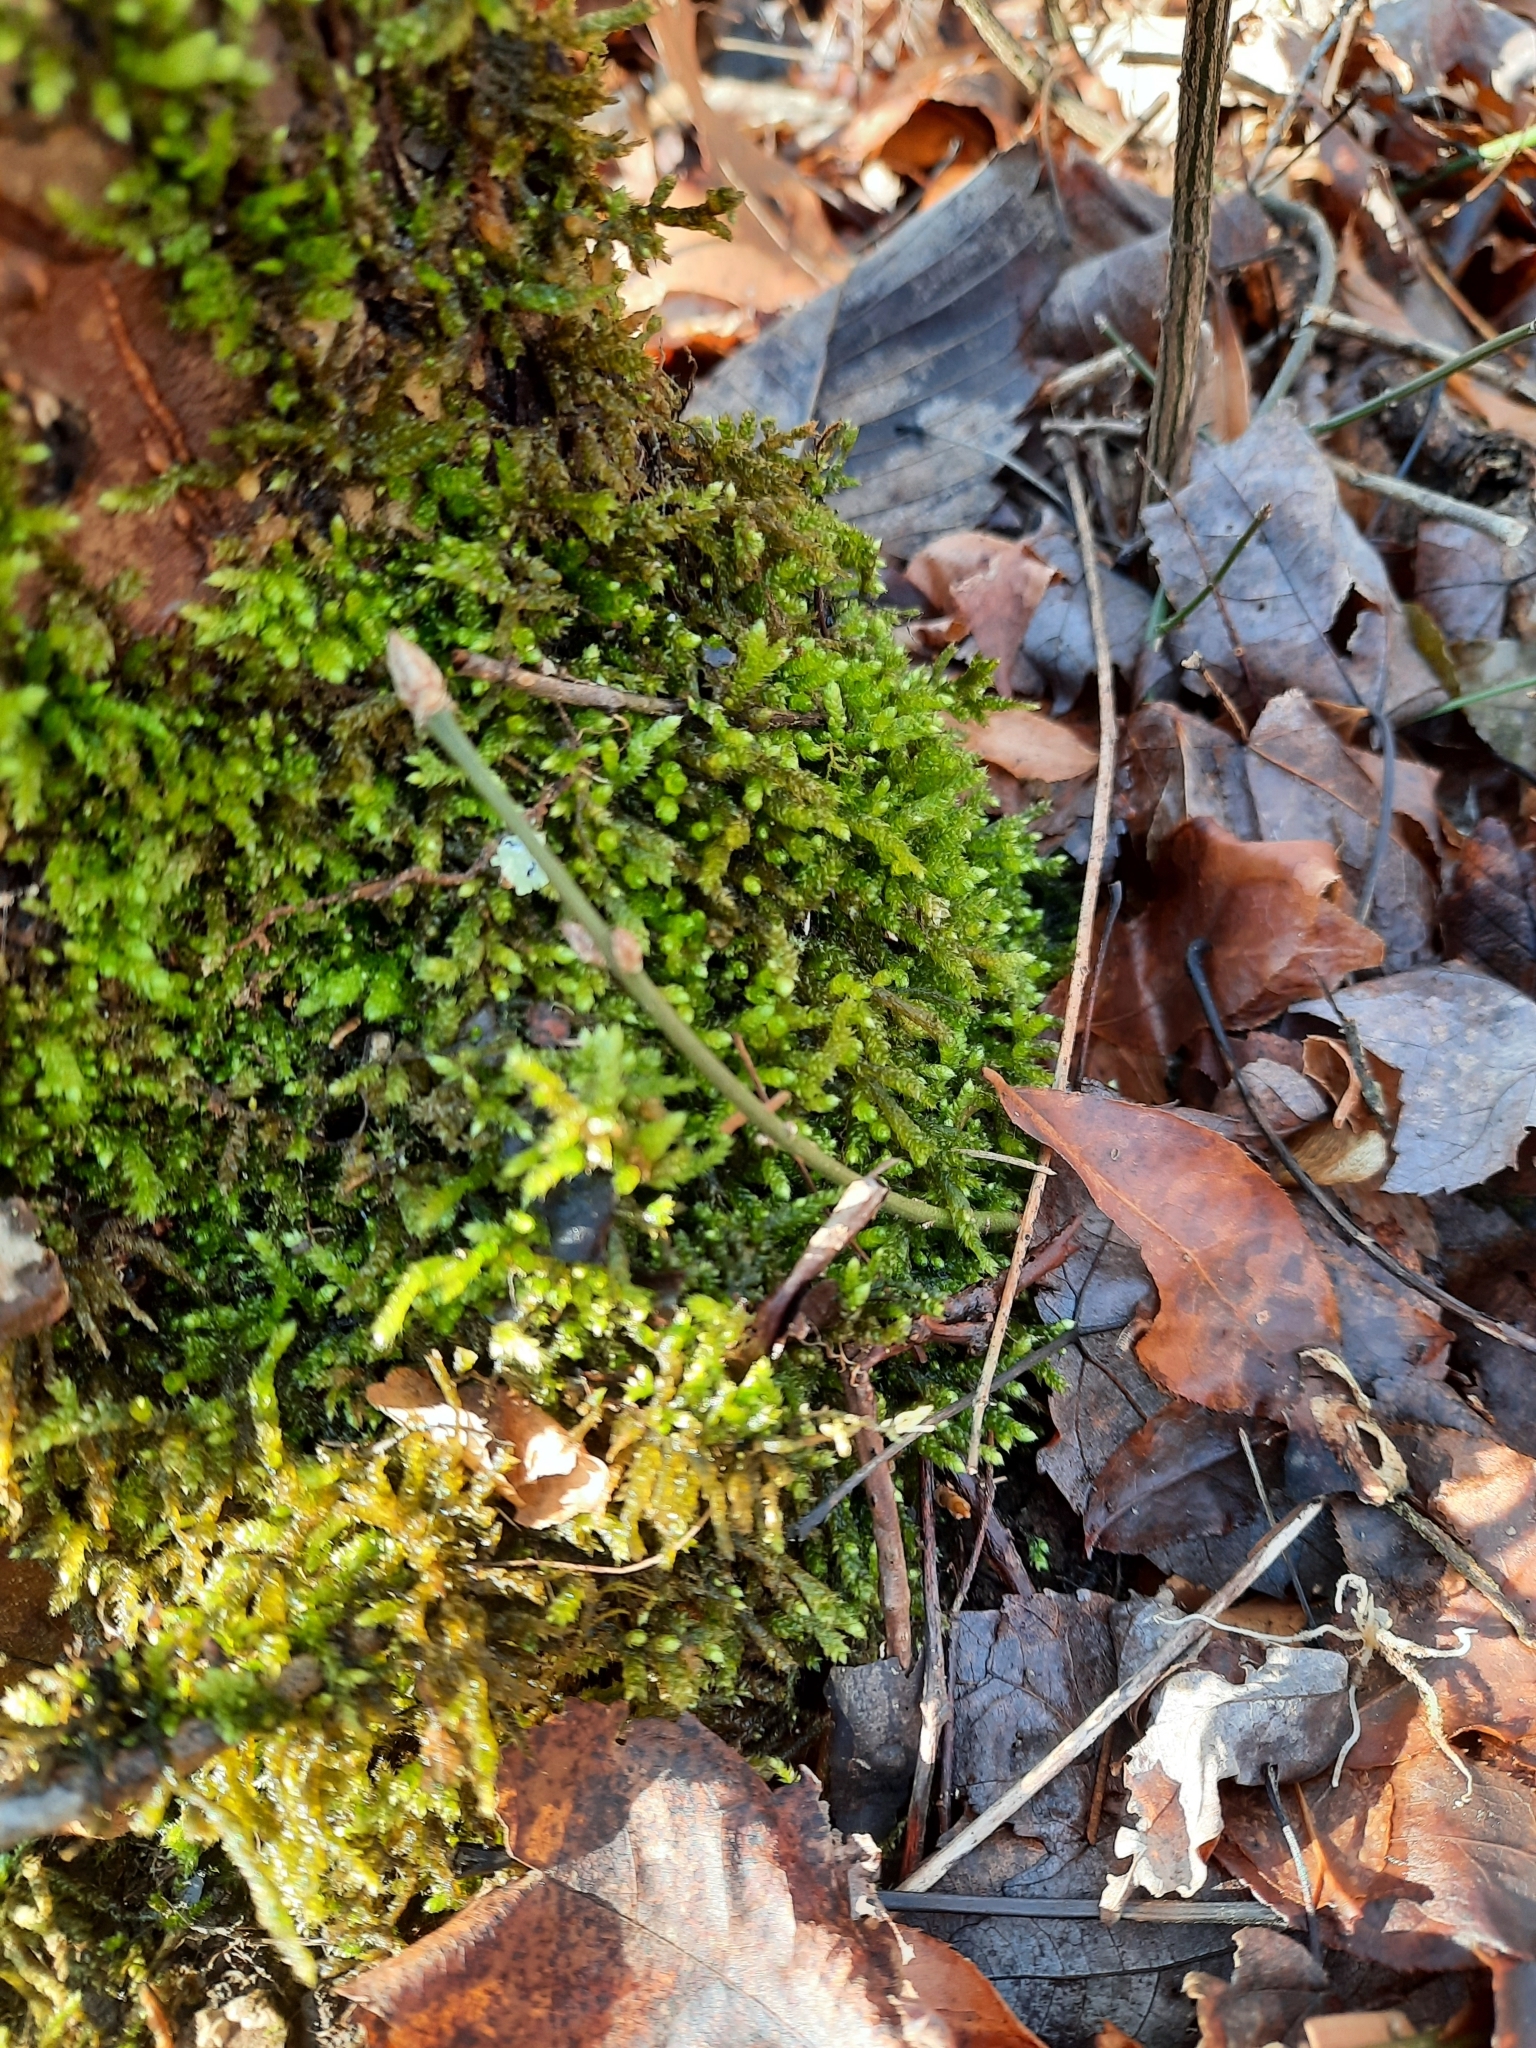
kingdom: Plantae
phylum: Bryophyta
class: Bryopsida
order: Hypnales
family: Brachytheciaceae
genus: Bryoandersonia
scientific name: Bryoandersonia illecebra
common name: Spoon-leaved moss
